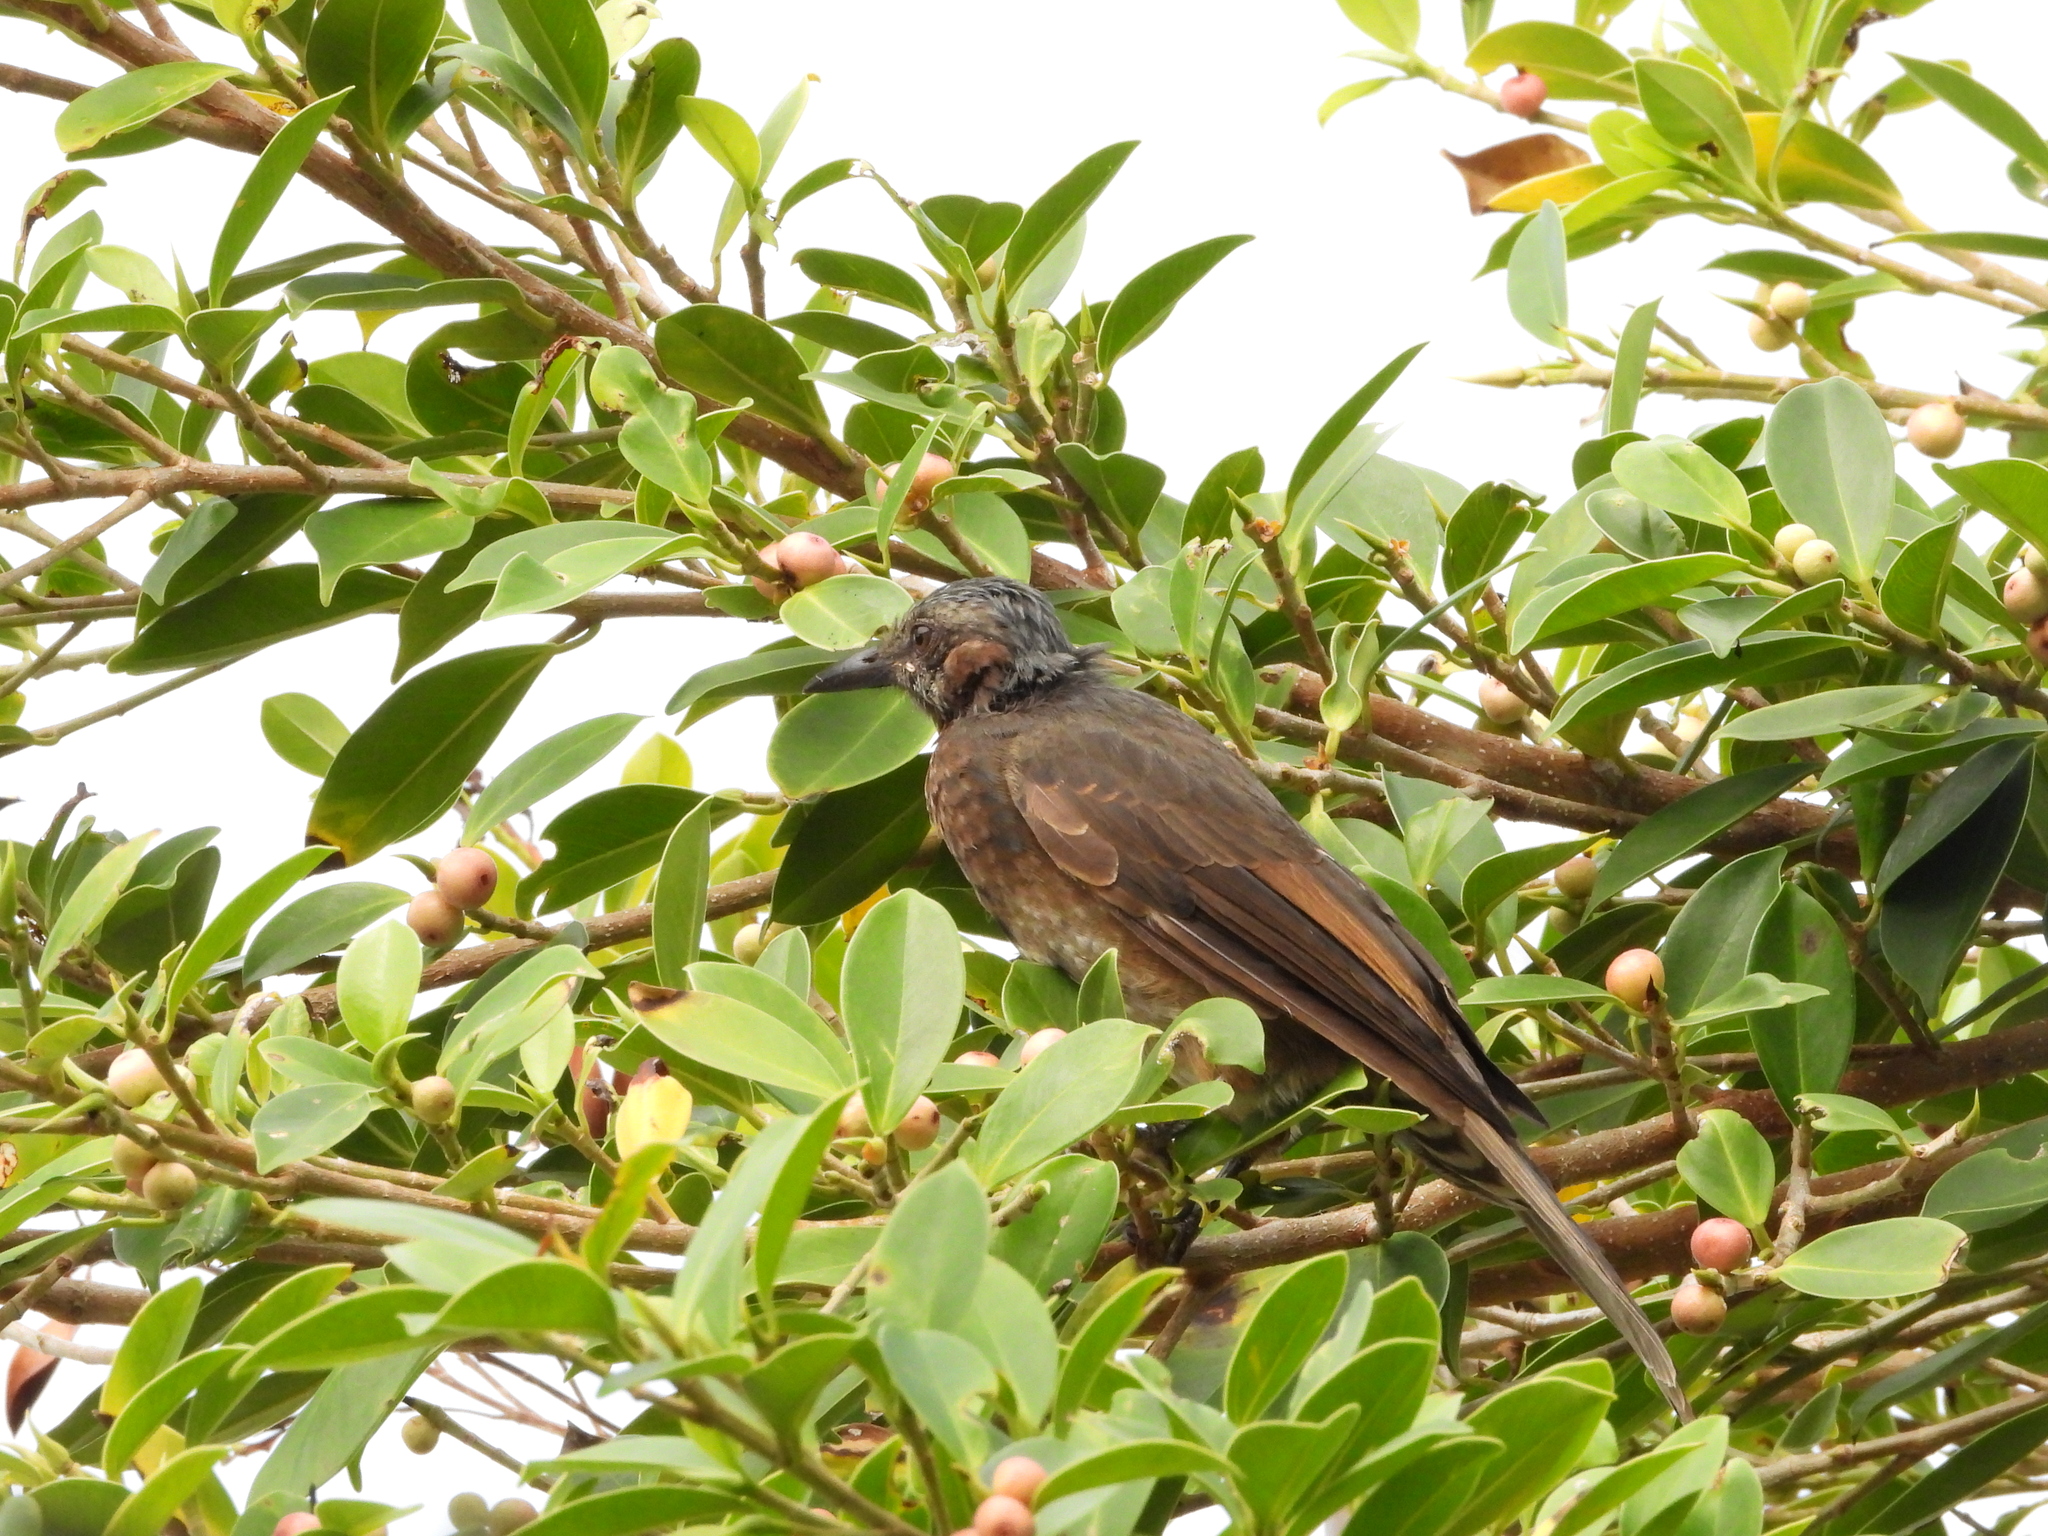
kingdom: Animalia
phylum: Chordata
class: Aves
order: Passeriformes
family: Pycnonotidae
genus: Hypsipetes
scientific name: Hypsipetes amaurotis
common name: Brown-eared bulbul
